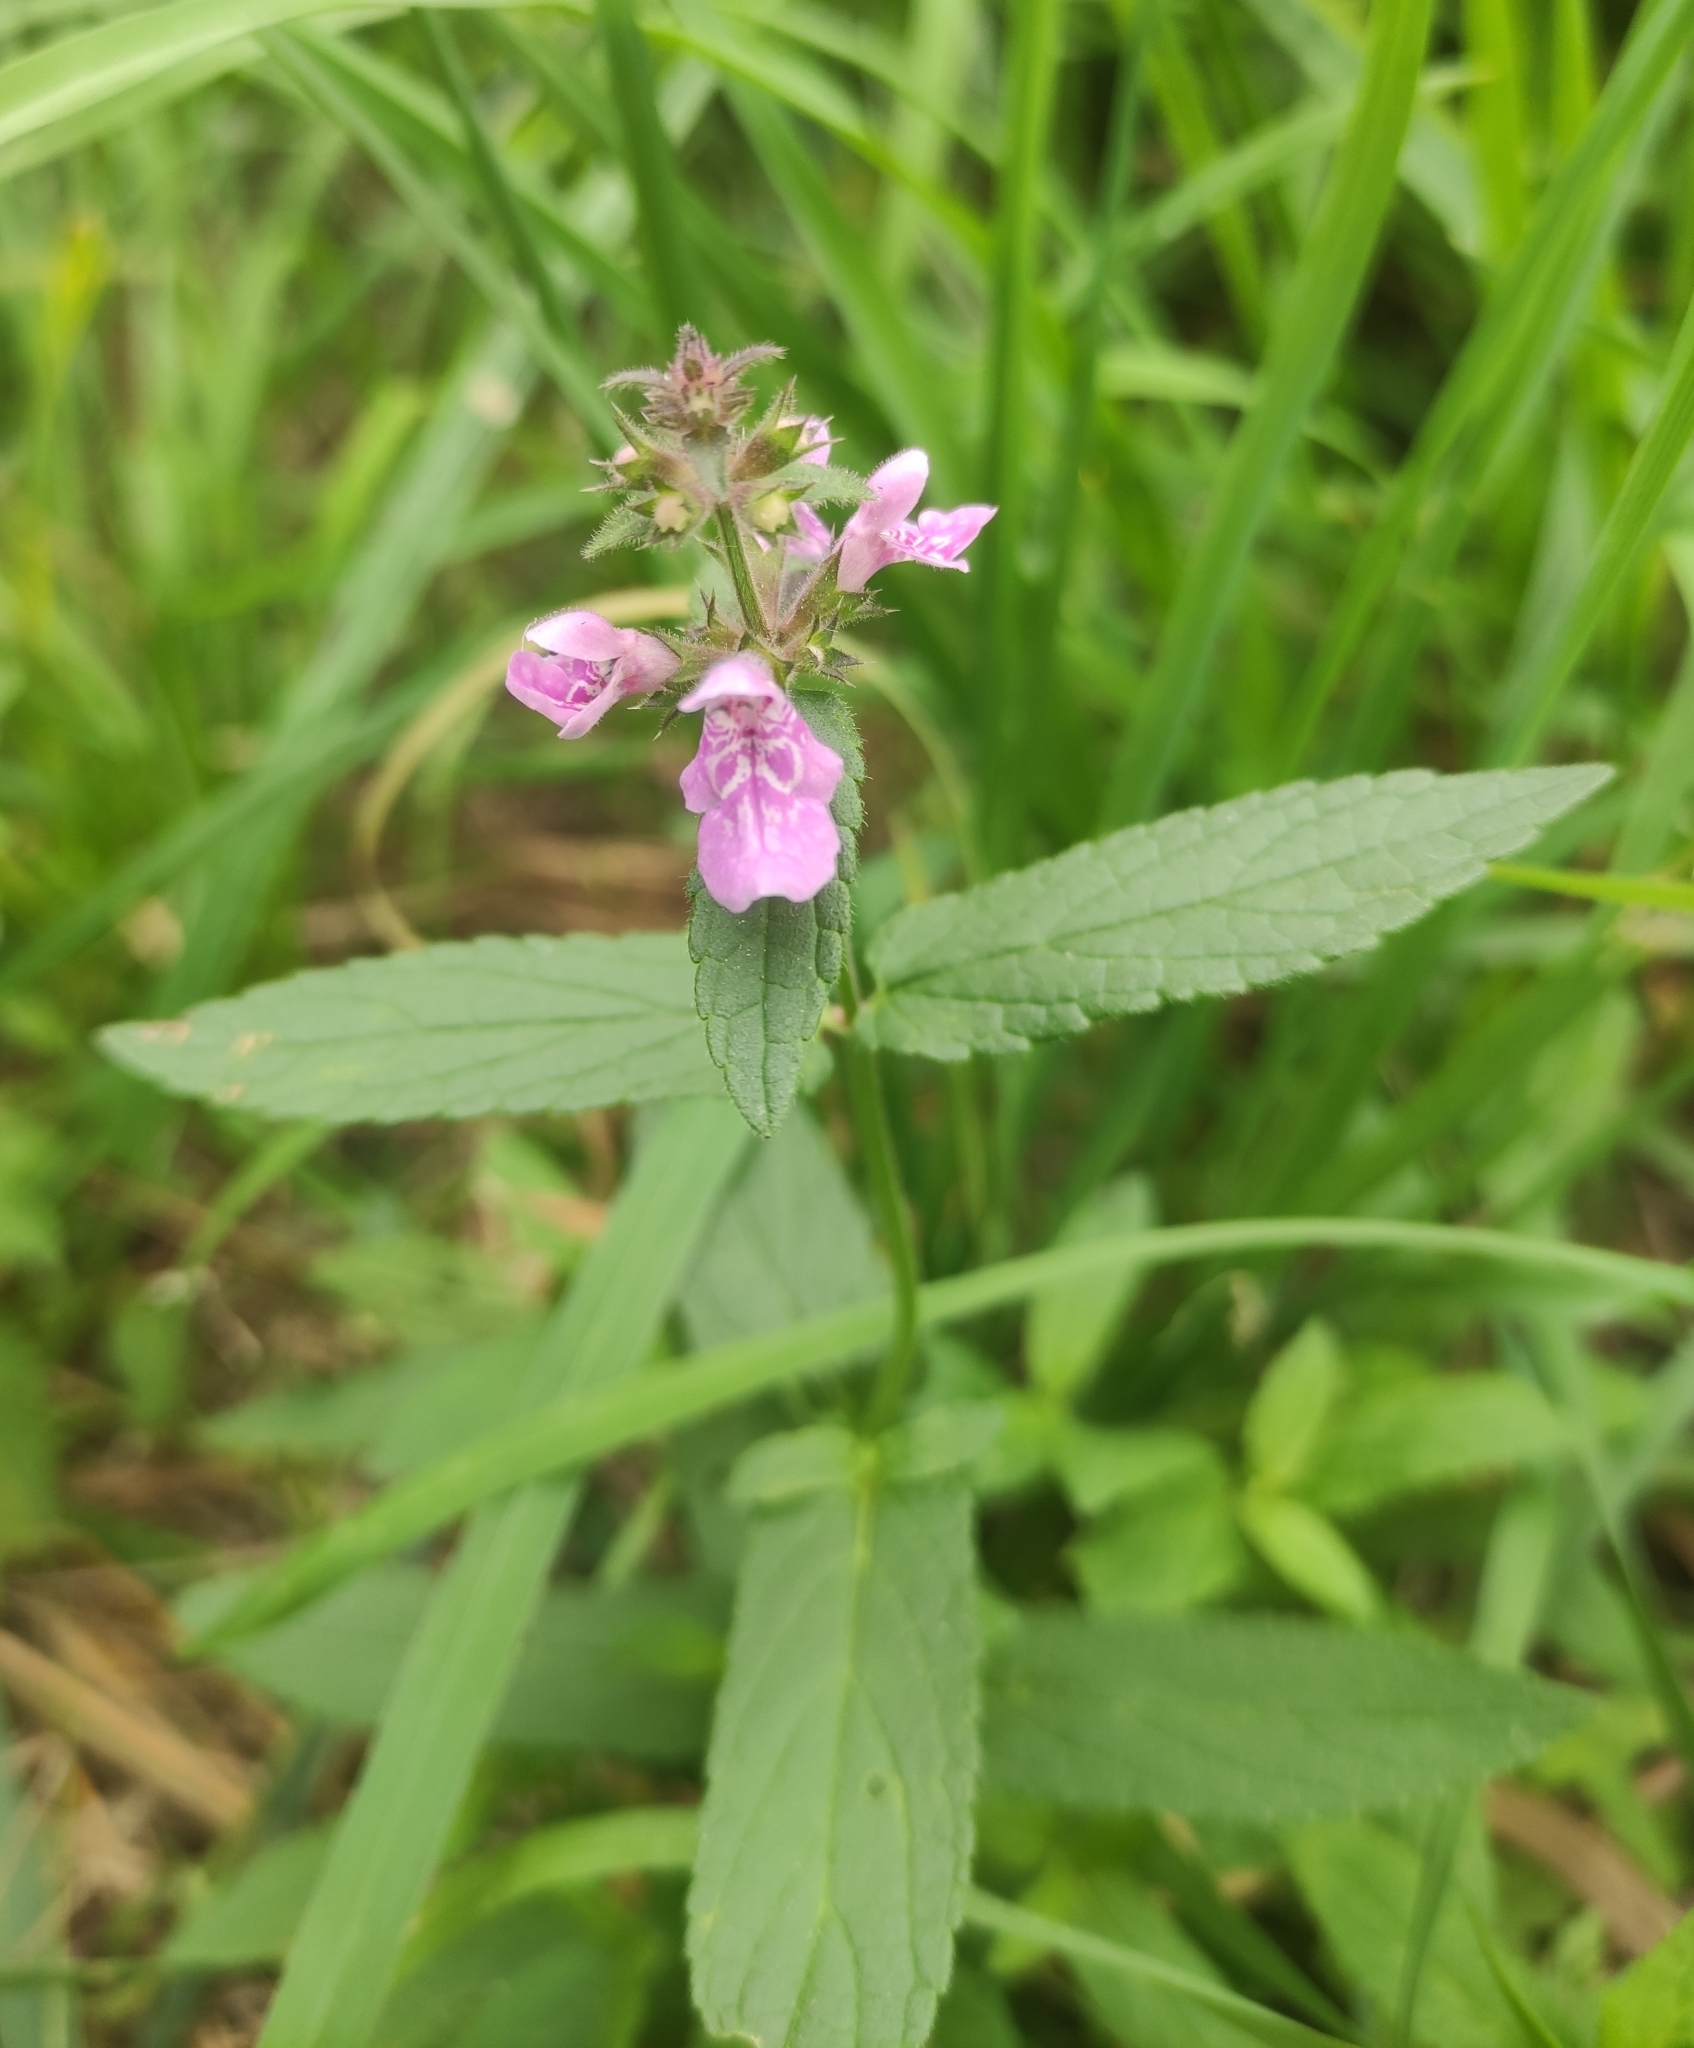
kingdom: Plantae
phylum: Tracheophyta
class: Magnoliopsida
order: Lamiales
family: Lamiaceae
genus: Stachys
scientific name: Stachys palustris
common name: Marsh woundwort
